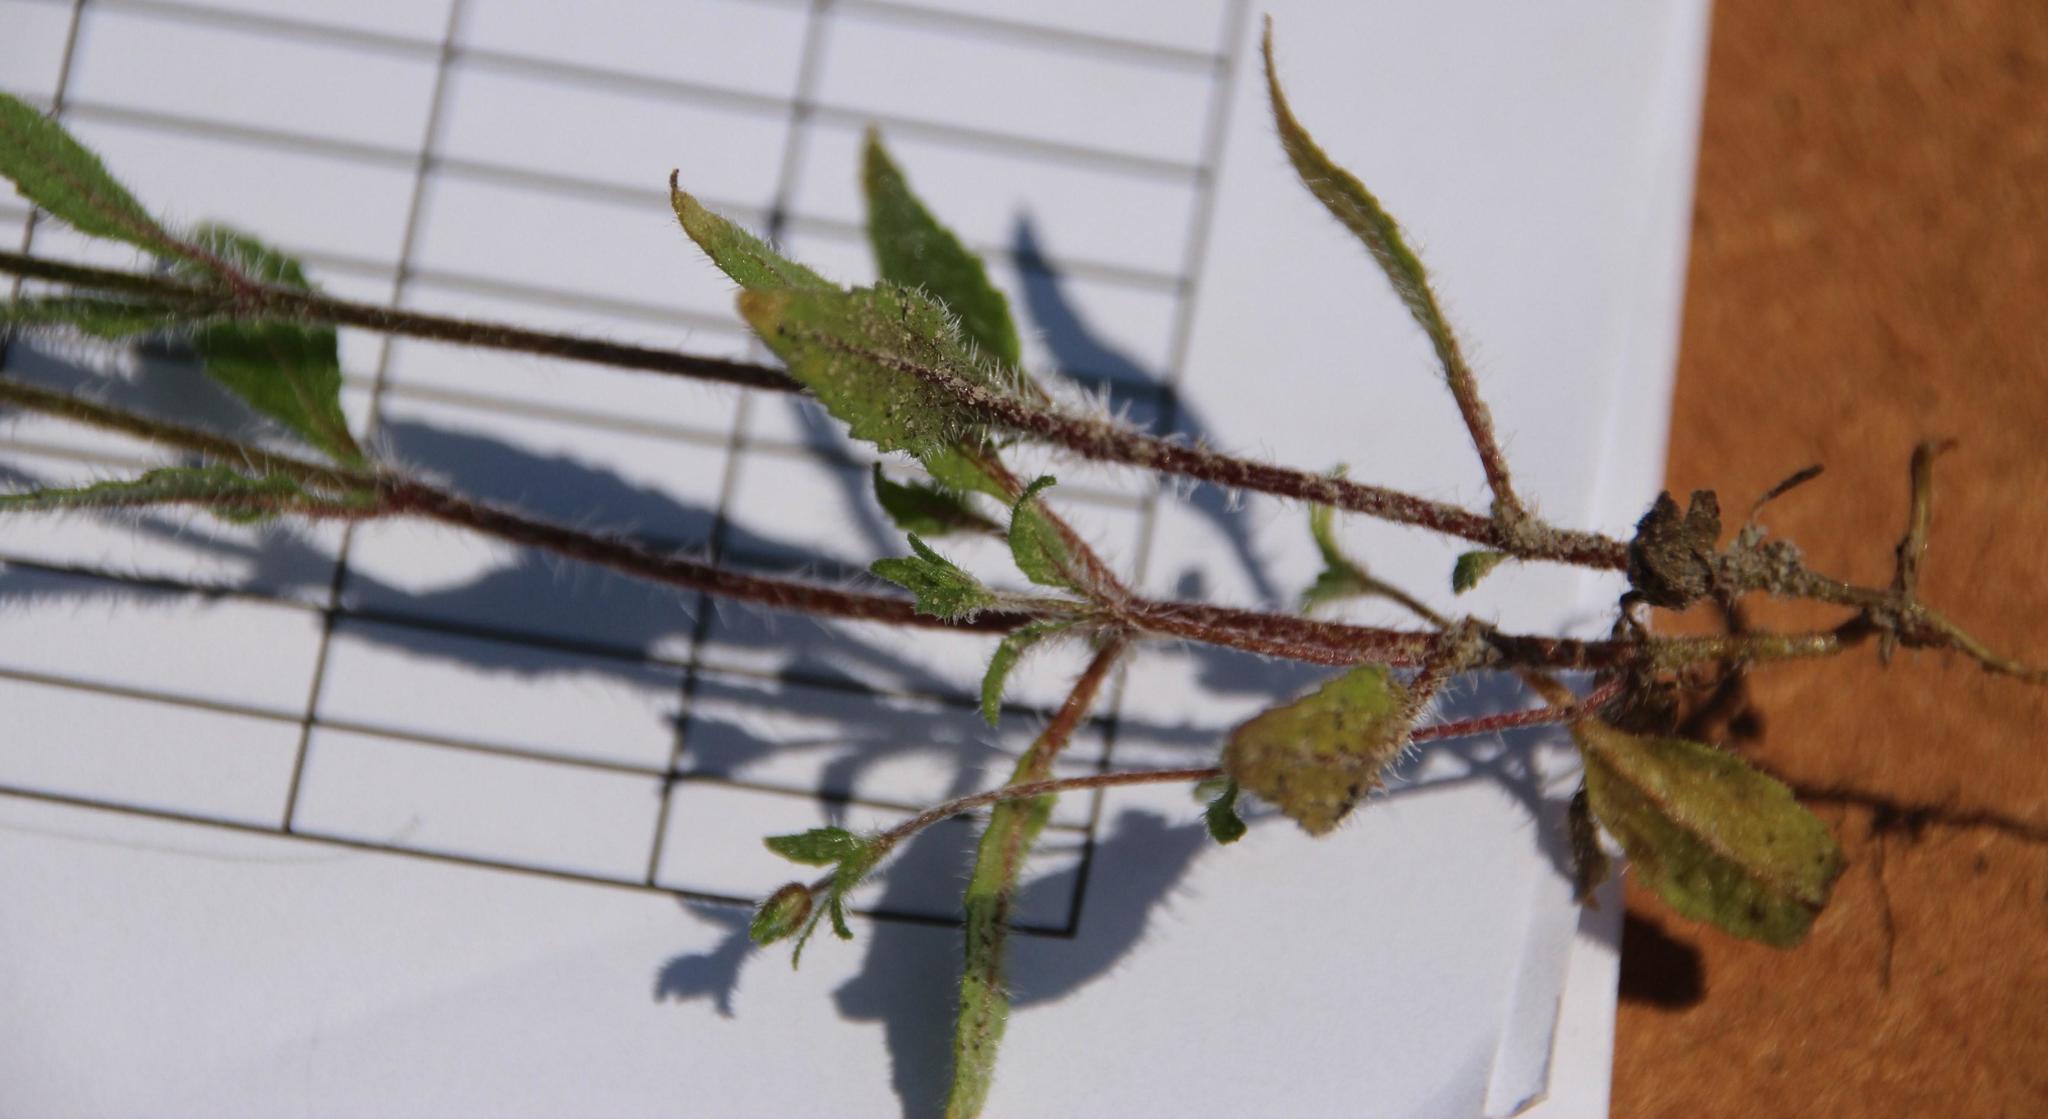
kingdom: Plantae
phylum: Tracheophyta
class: Magnoliopsida
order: Lamiales
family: Scrophulariaceae
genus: Phyllopodium
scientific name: Phyllopodium cordatum
